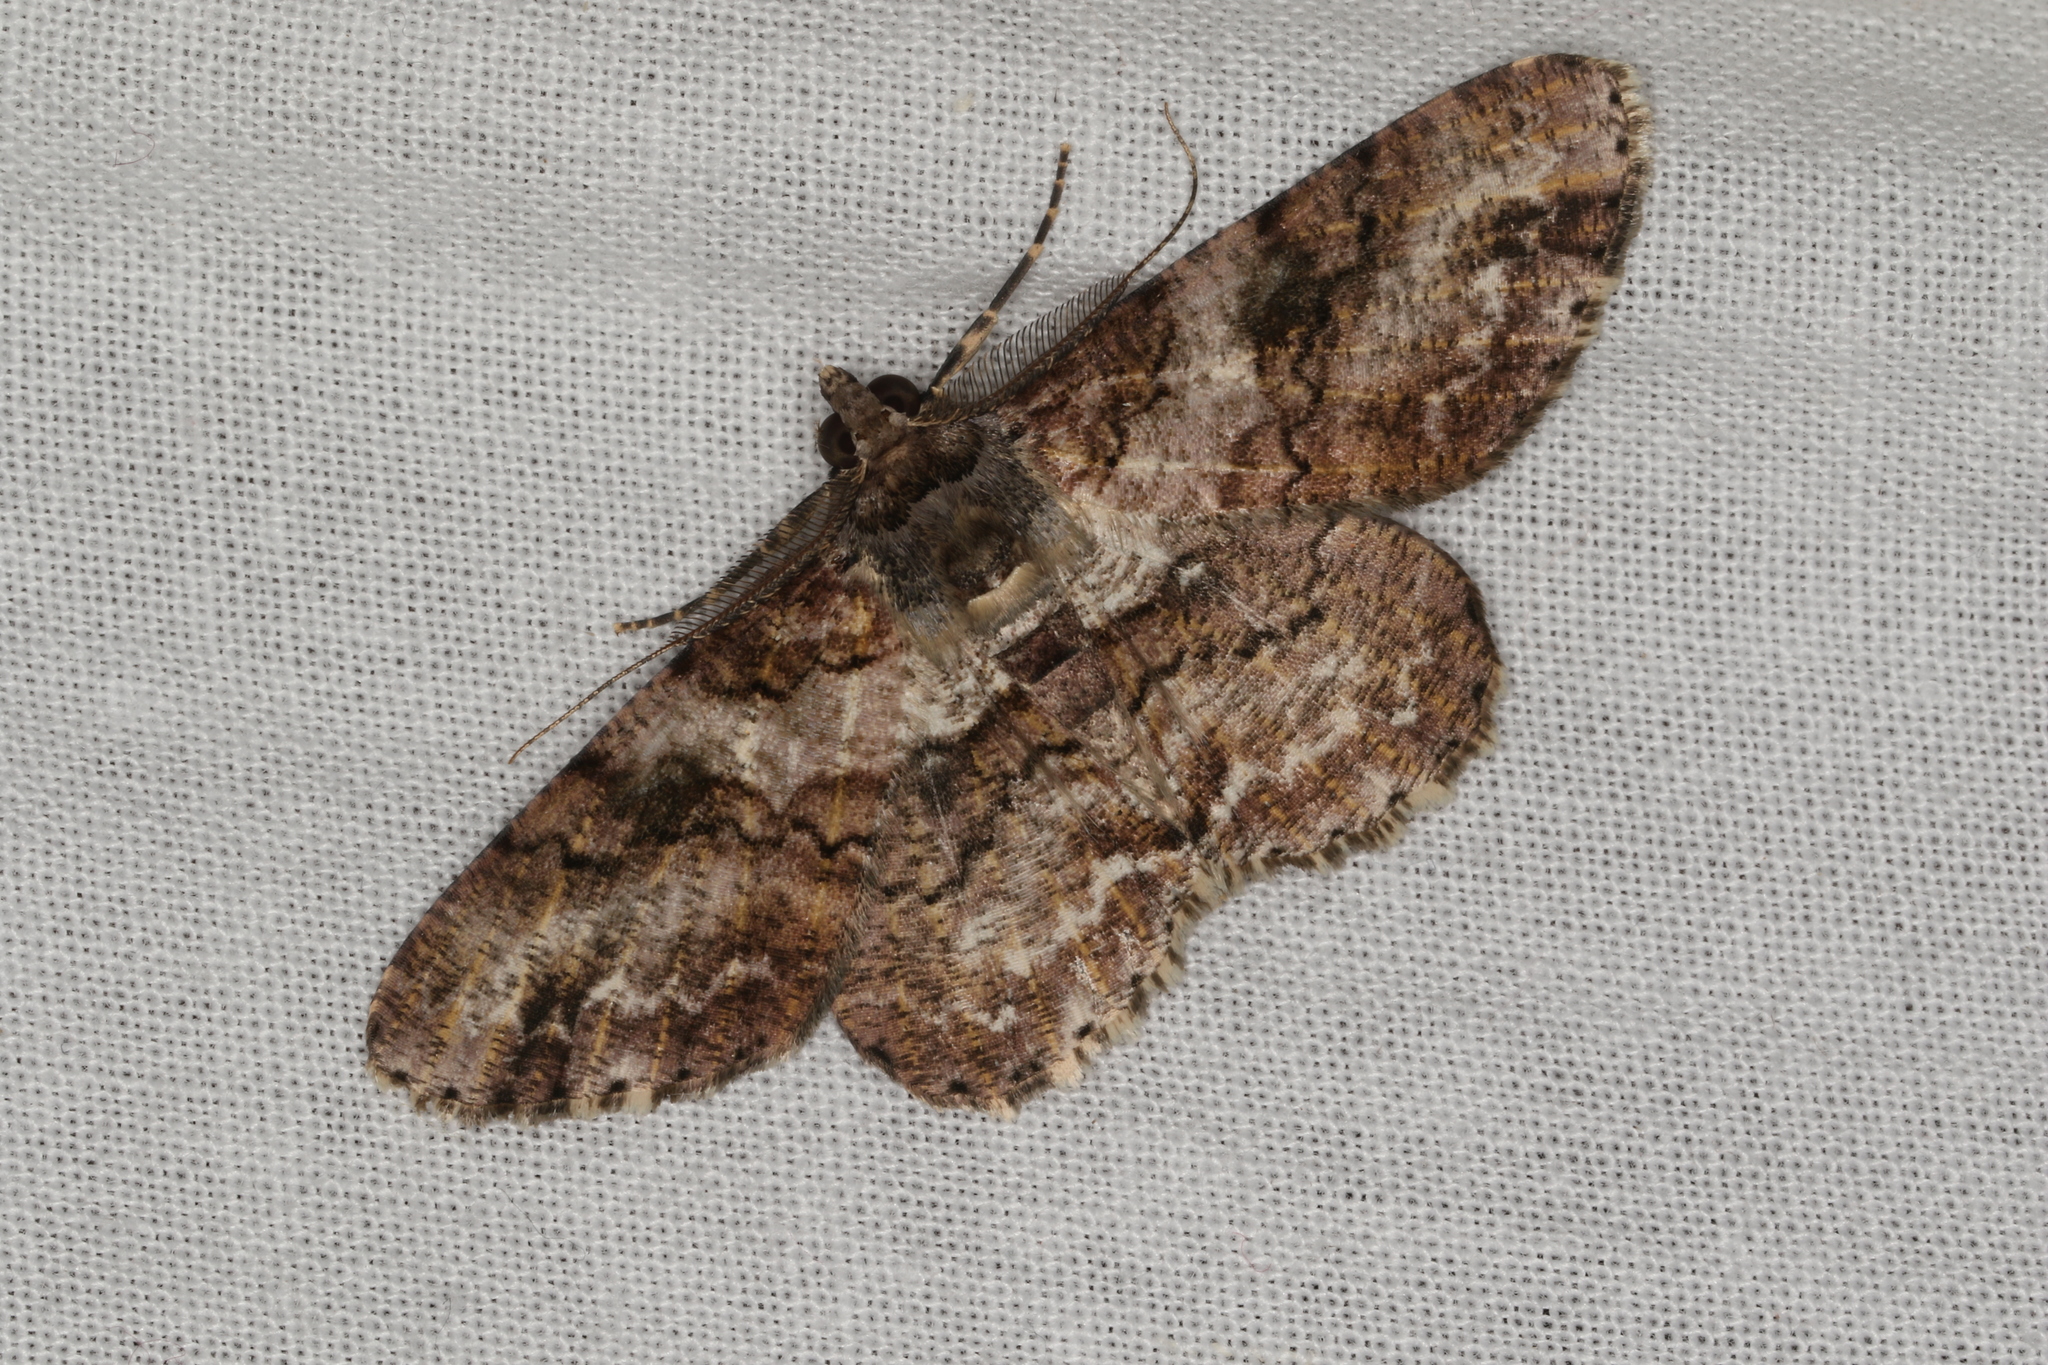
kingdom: Animalia
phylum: Arthropoda
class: Insecta
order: Lepidoptera
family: Geometridae
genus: Cleora
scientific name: Cleora repetita
